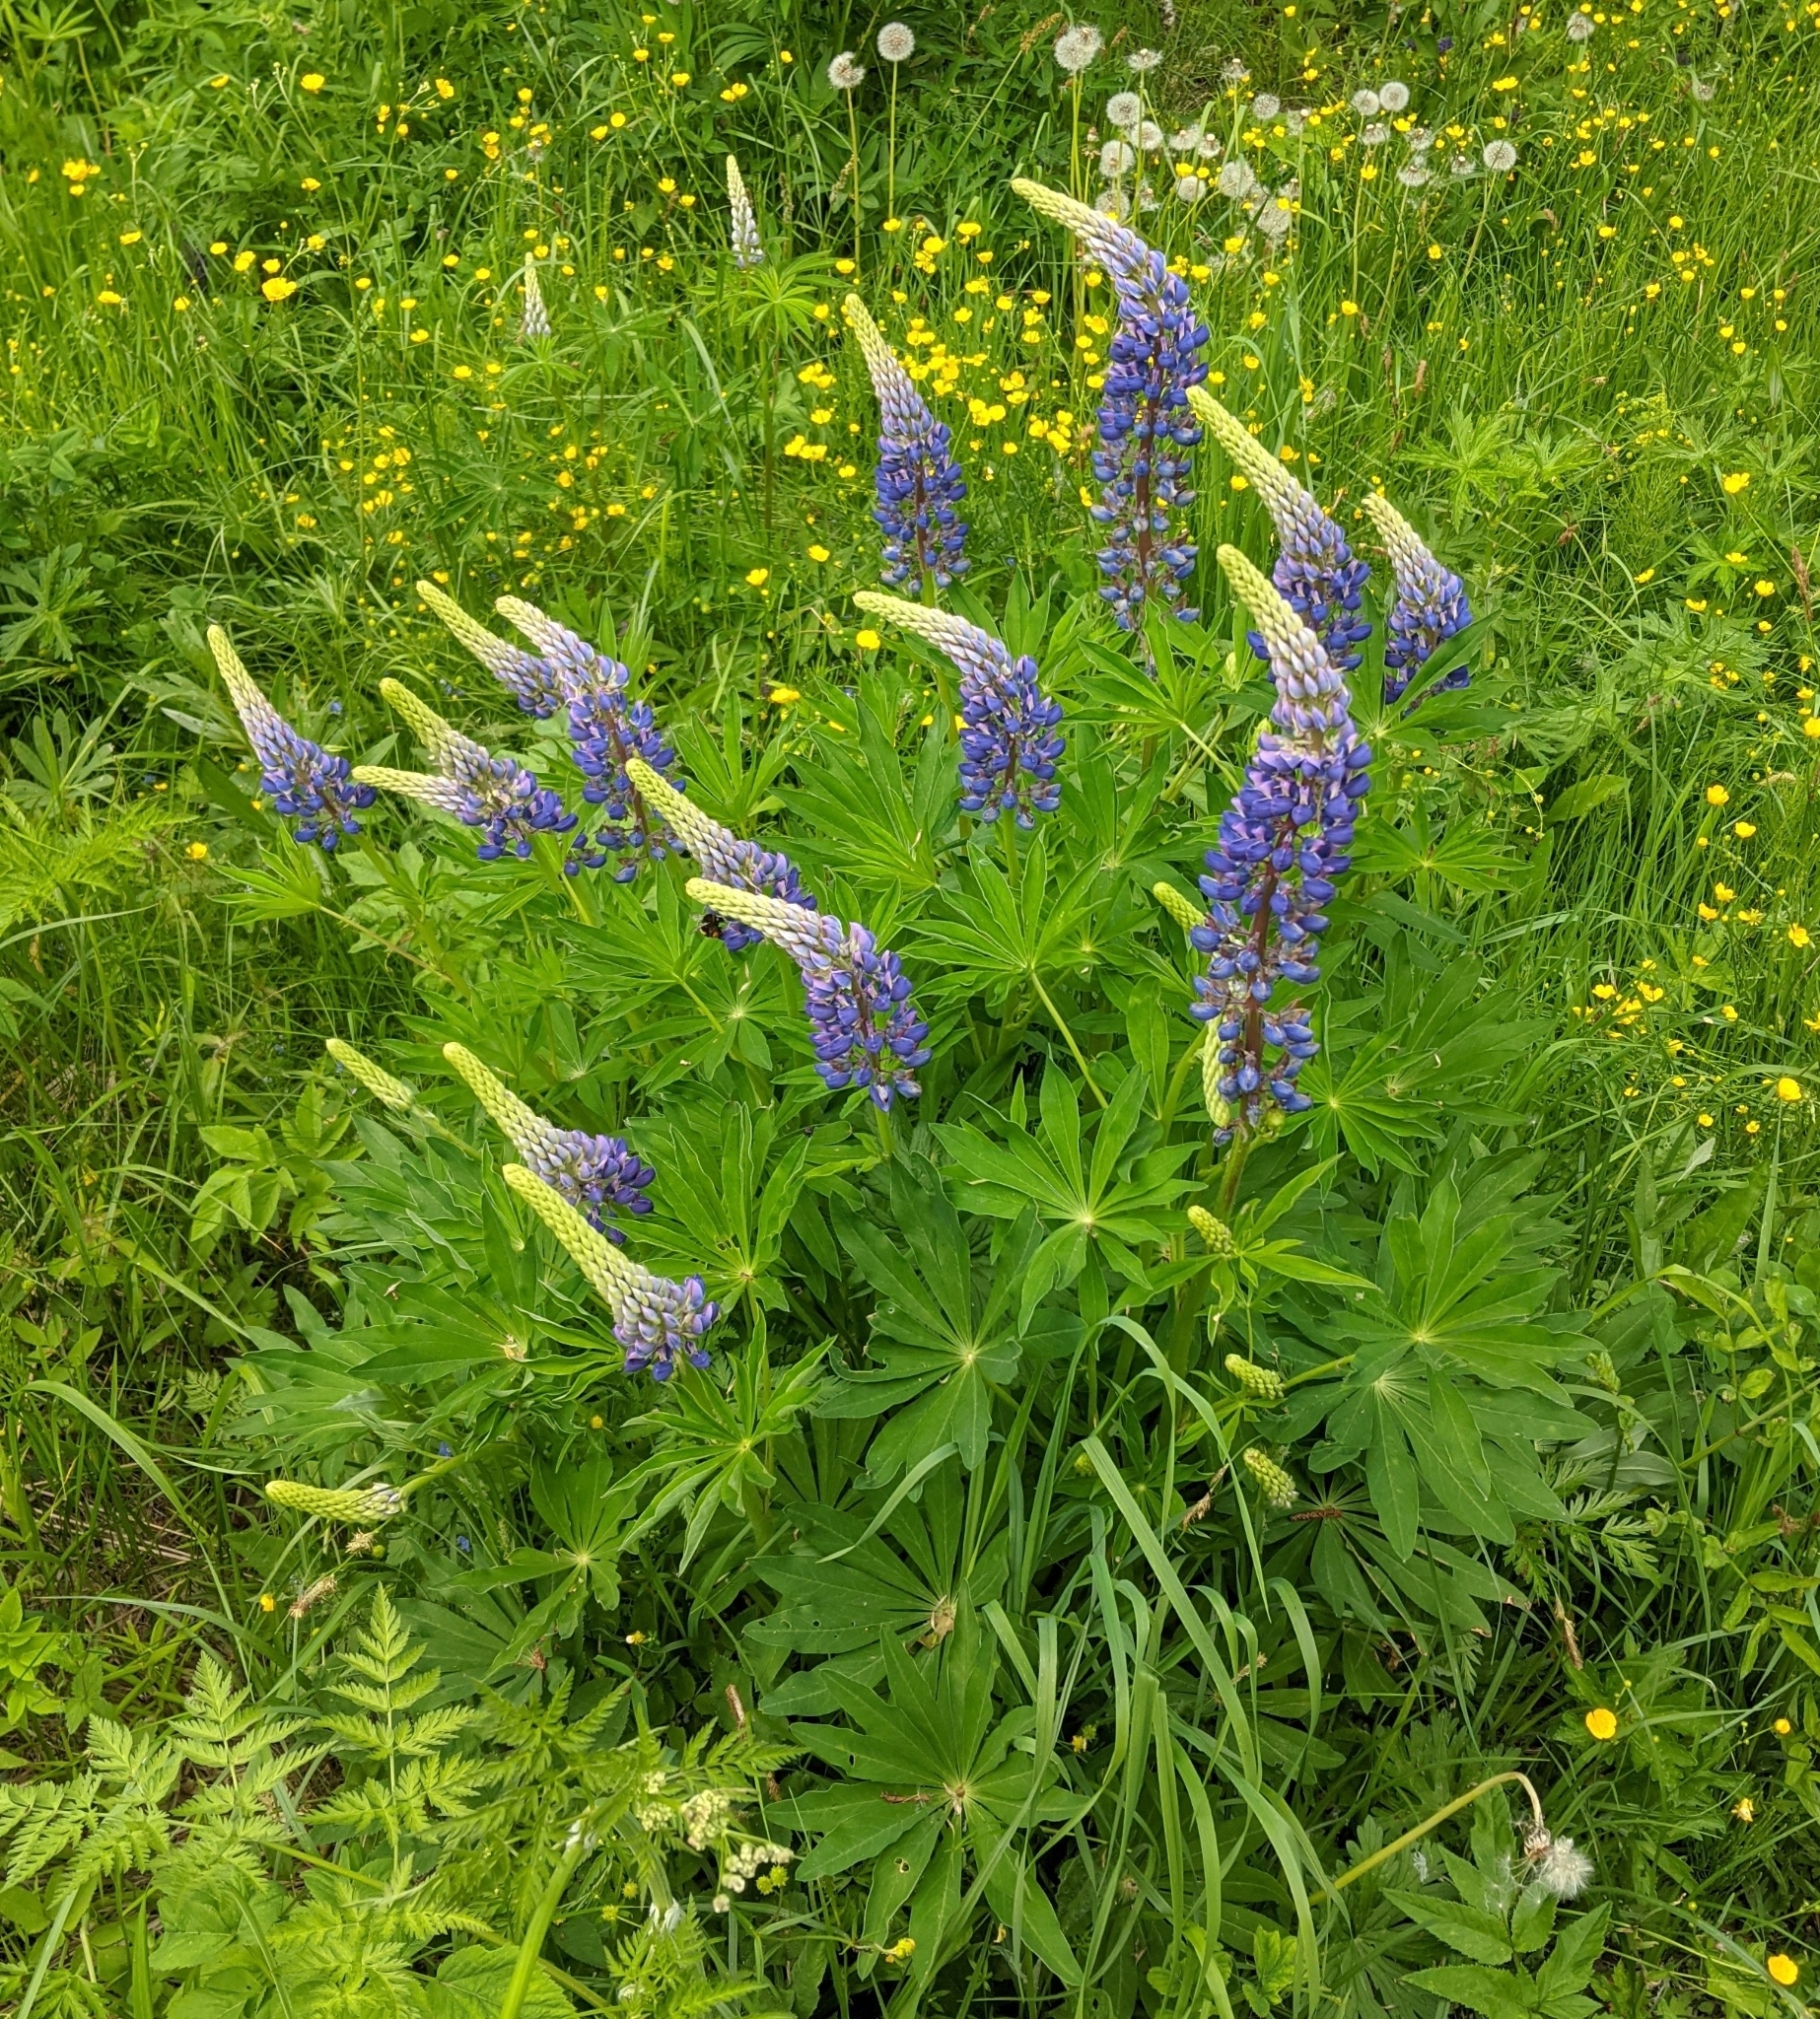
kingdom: Plantae
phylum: Tracheophyta
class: Magnoliopsida
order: Fabales
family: Fabaceae
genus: Lupinus
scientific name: Lupinus polyphyllus
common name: Garden lupin
